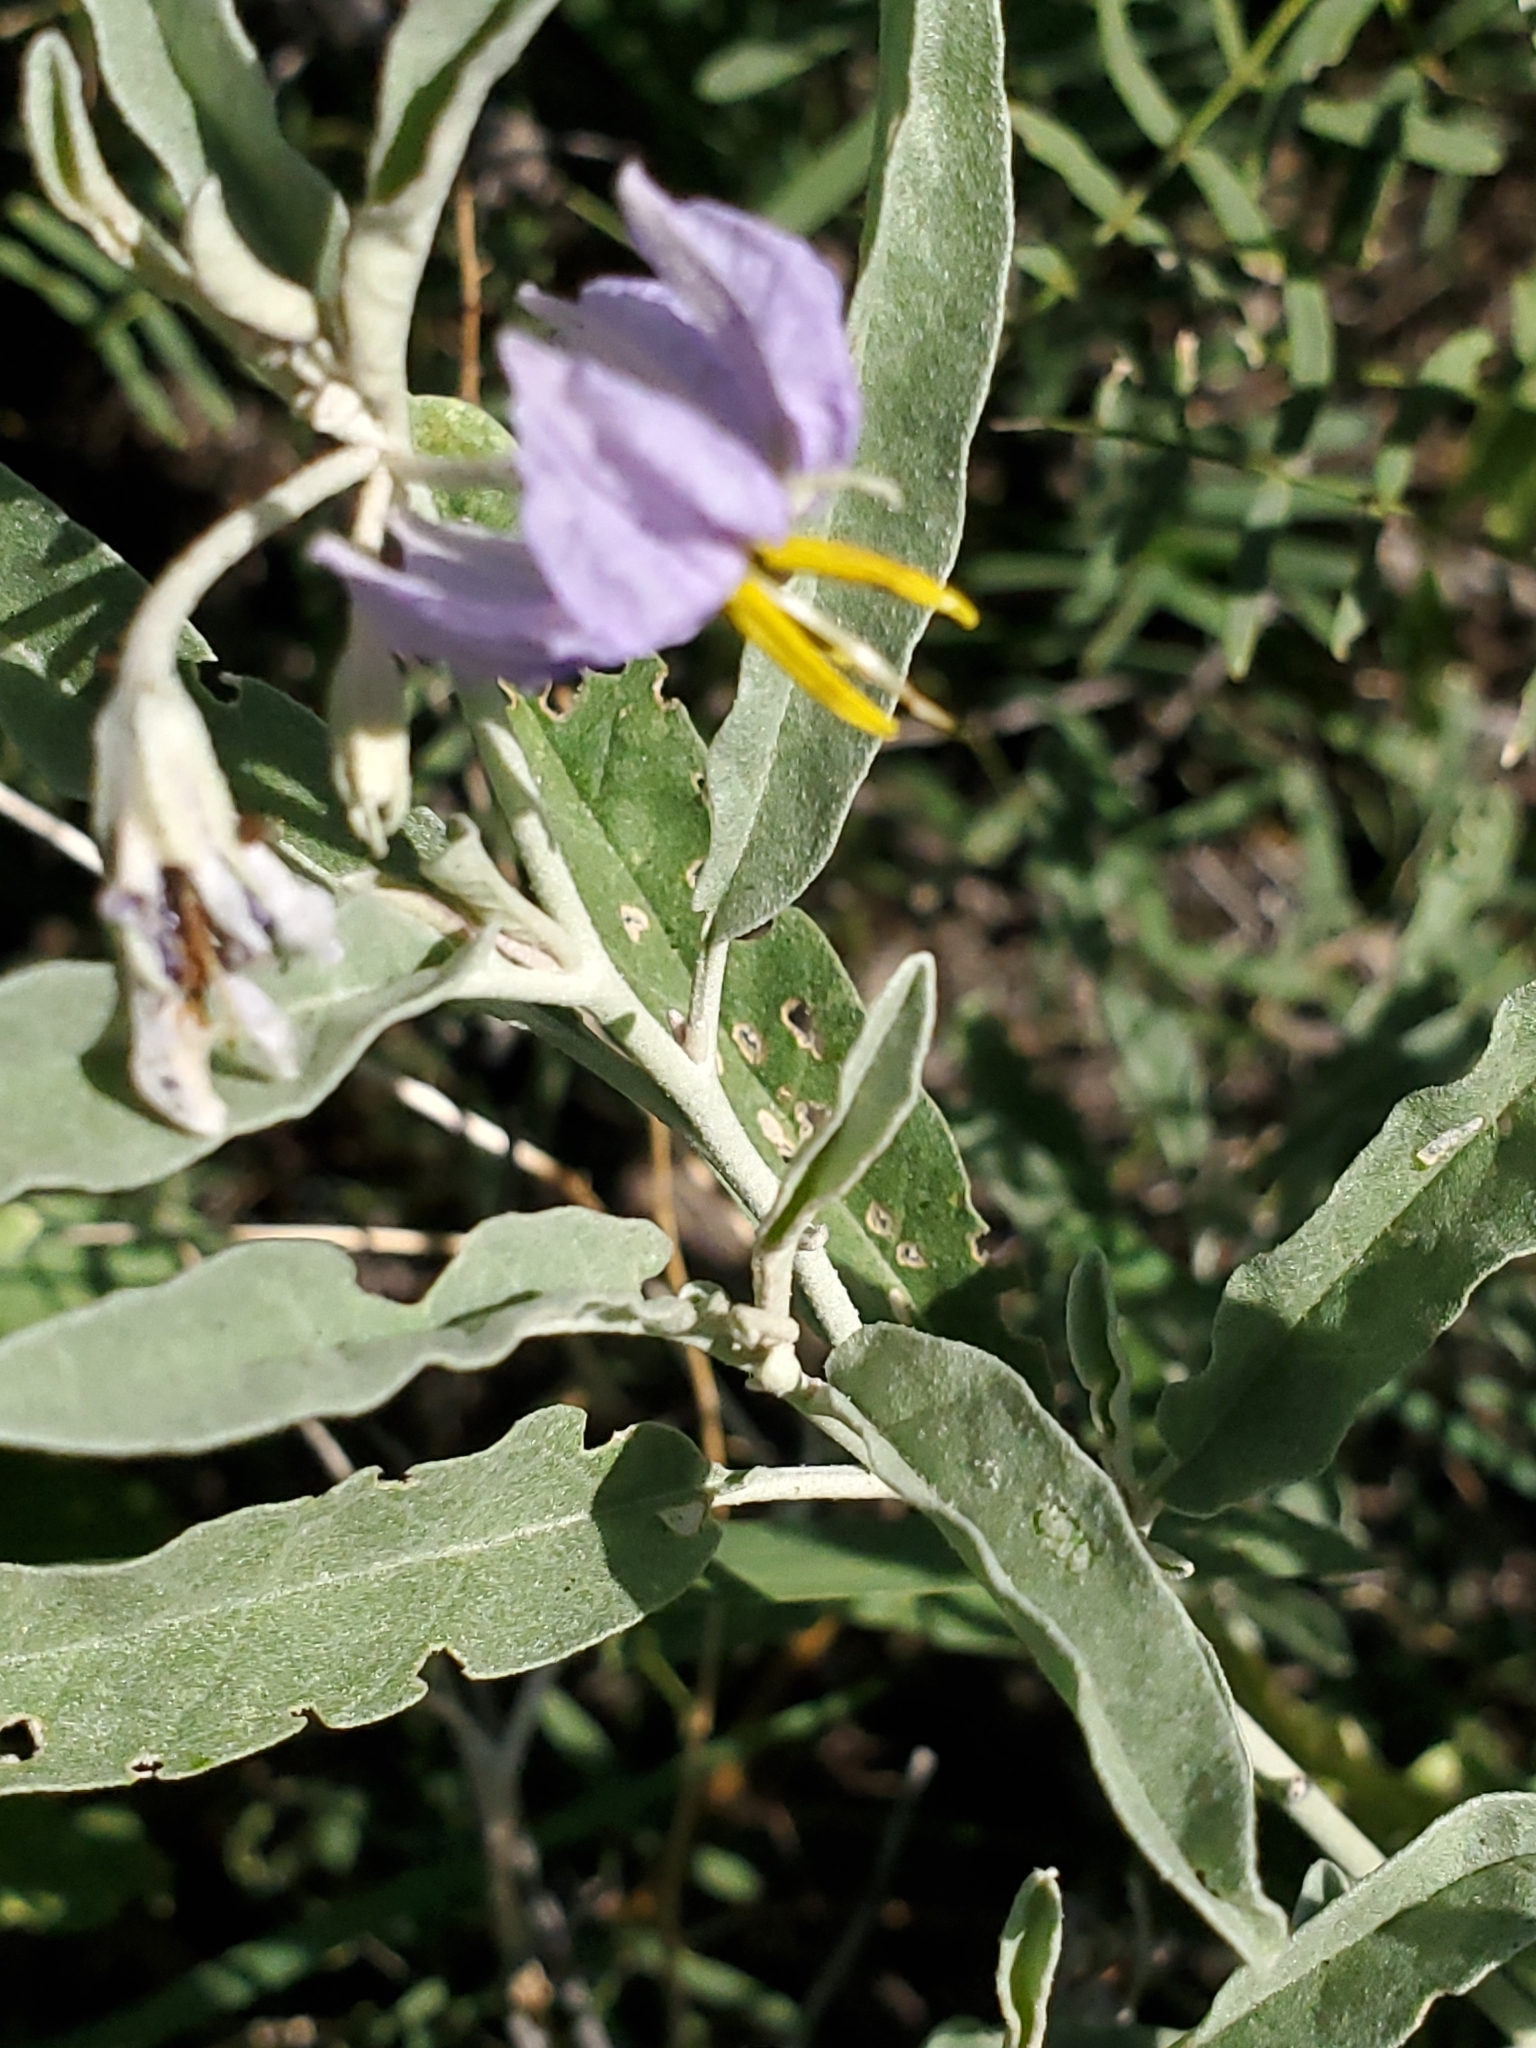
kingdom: Plantae
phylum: Tracheophyta
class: Magnoliopsida
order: Solanales
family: Solanaceae
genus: Solanum
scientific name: Solanum elaeagnifolium
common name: Silverleaf nightshade
